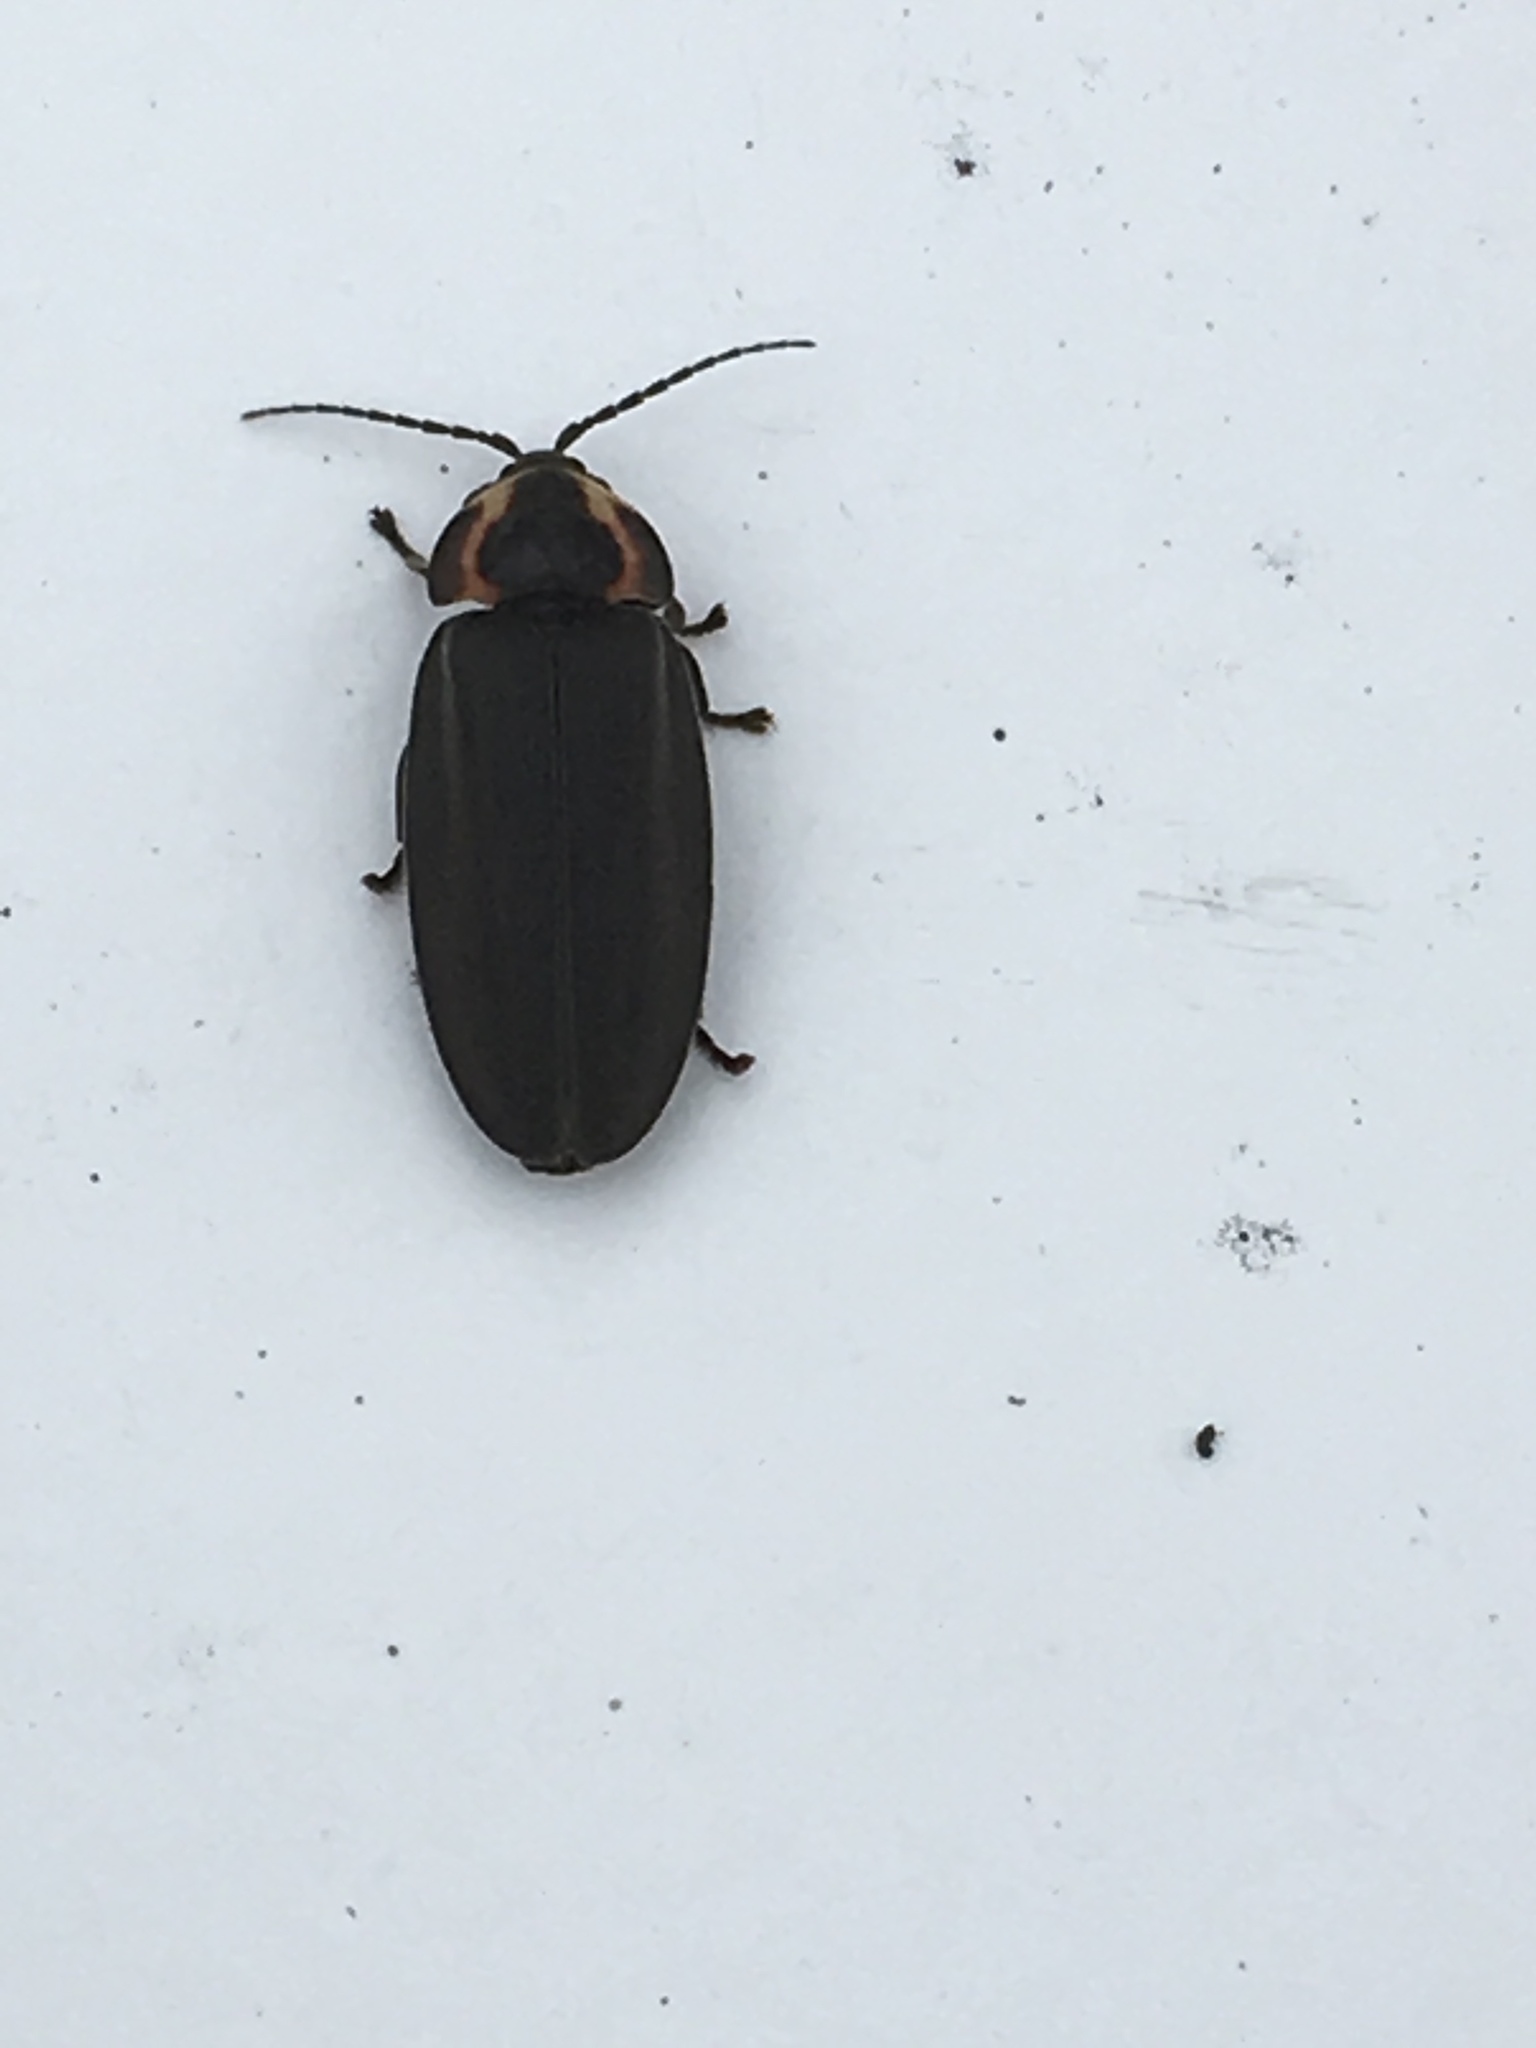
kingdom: Animalia
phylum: Arthropoda
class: Insecta
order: Coleoptera
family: Lampyridae
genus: Photinus
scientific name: Photinus corrusca
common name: Winter firefly
